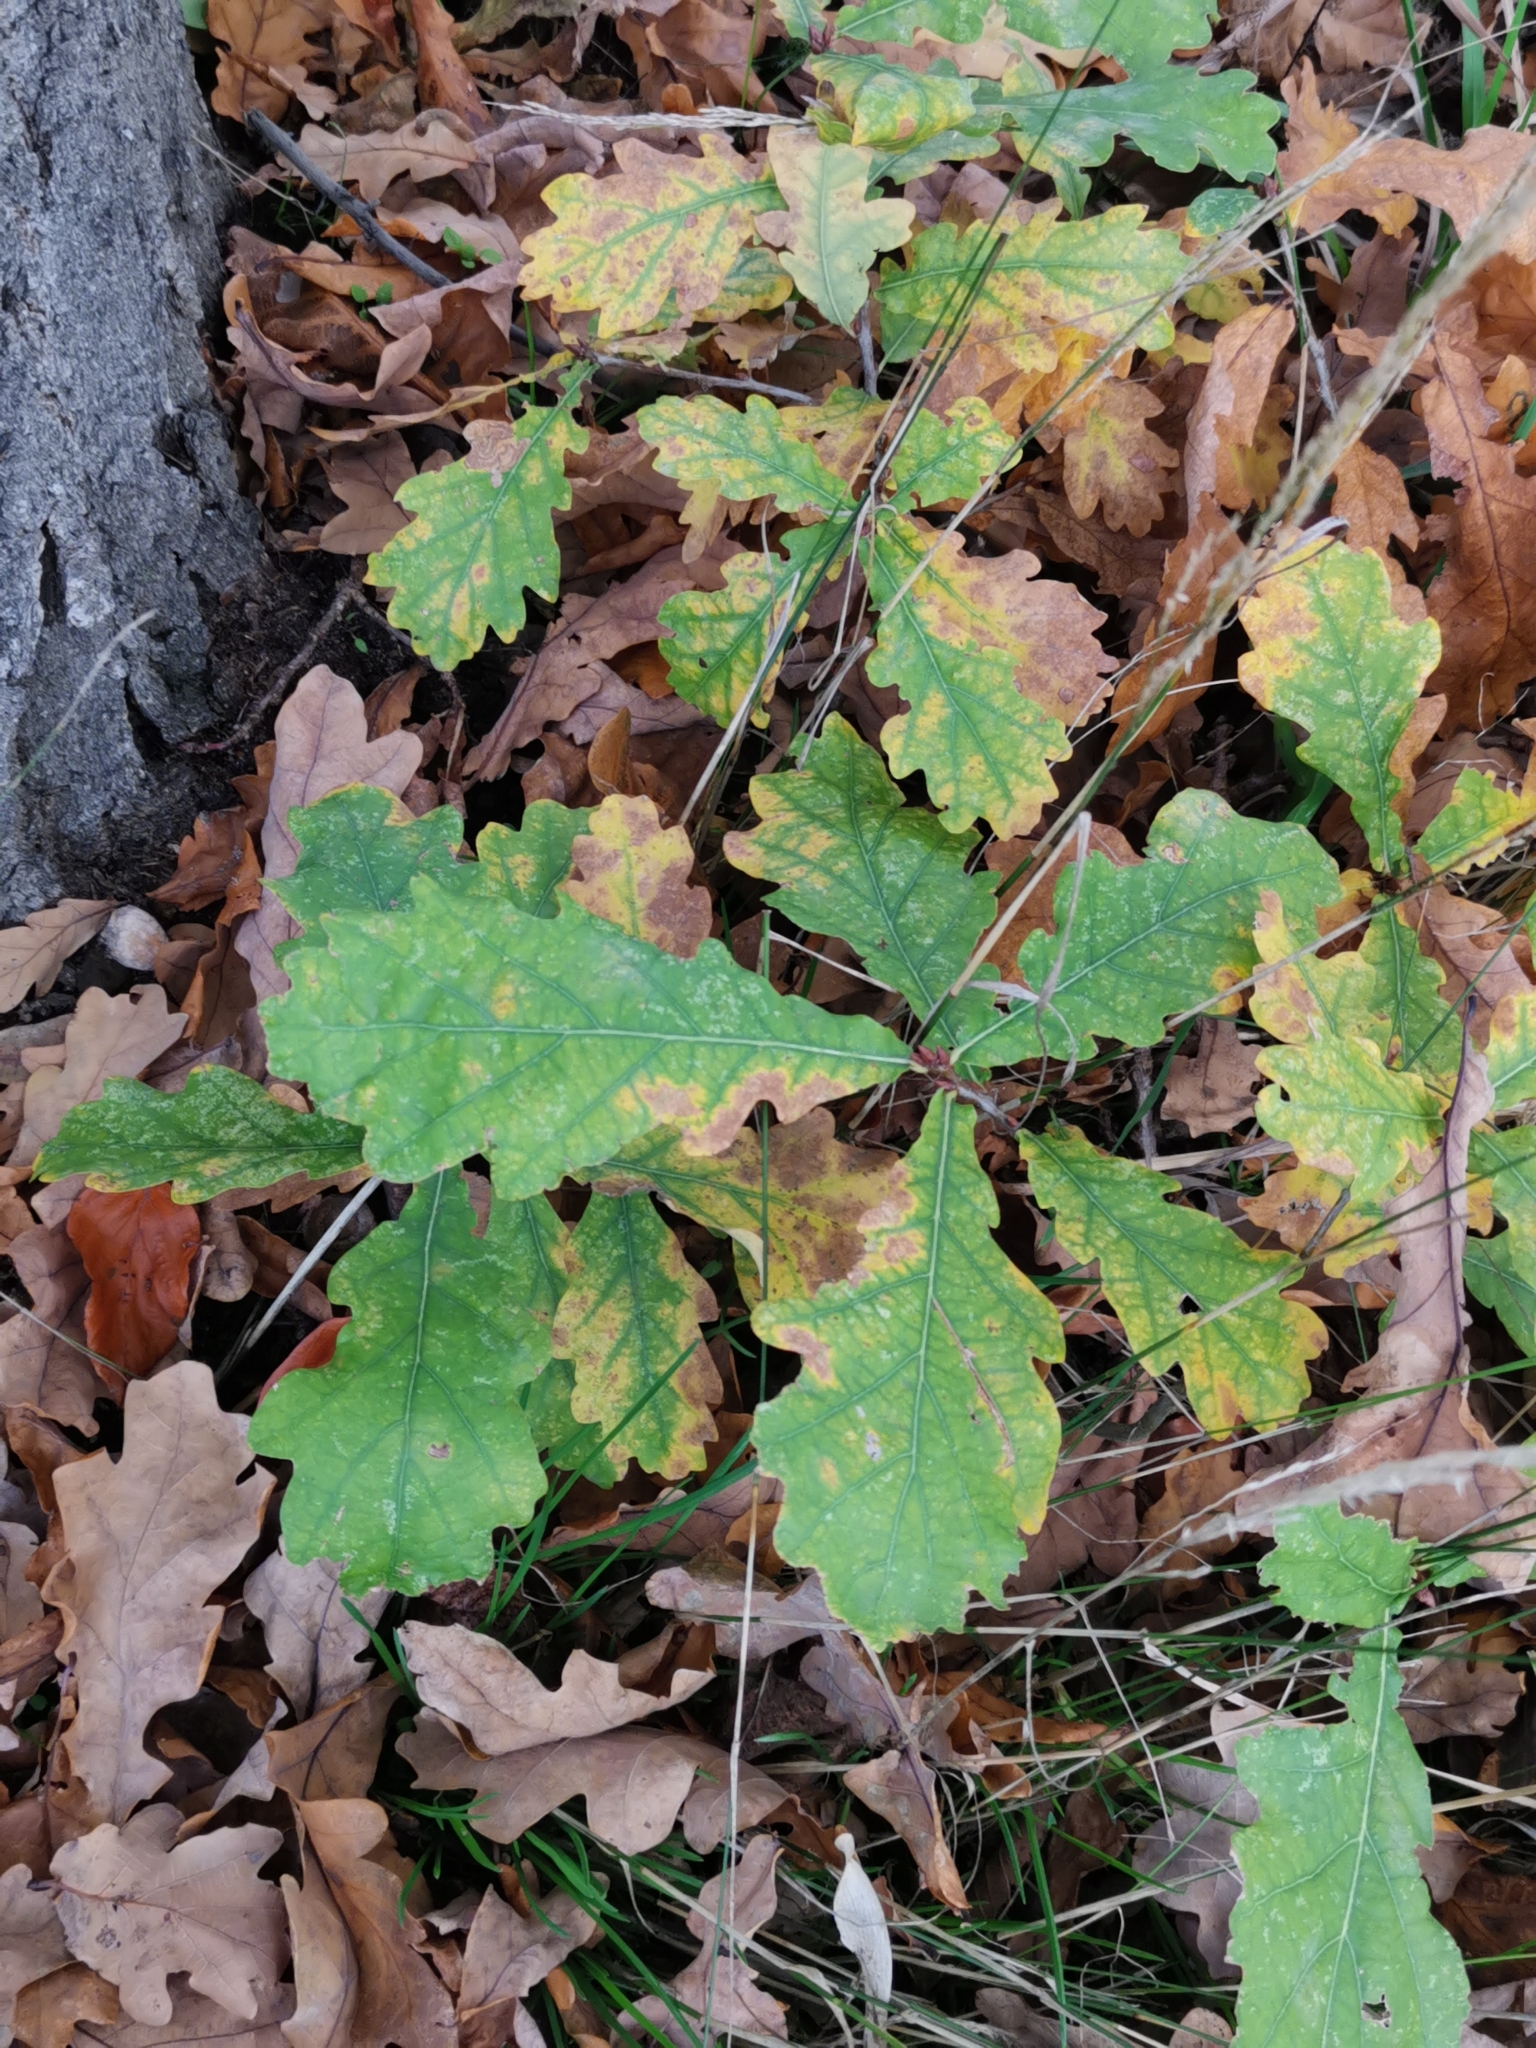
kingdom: Plantae
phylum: Tracheophyta
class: Magnoliopsida
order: Fagales
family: Fagaceae
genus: Quercus
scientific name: Quercus robur
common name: Pedunculate oak
